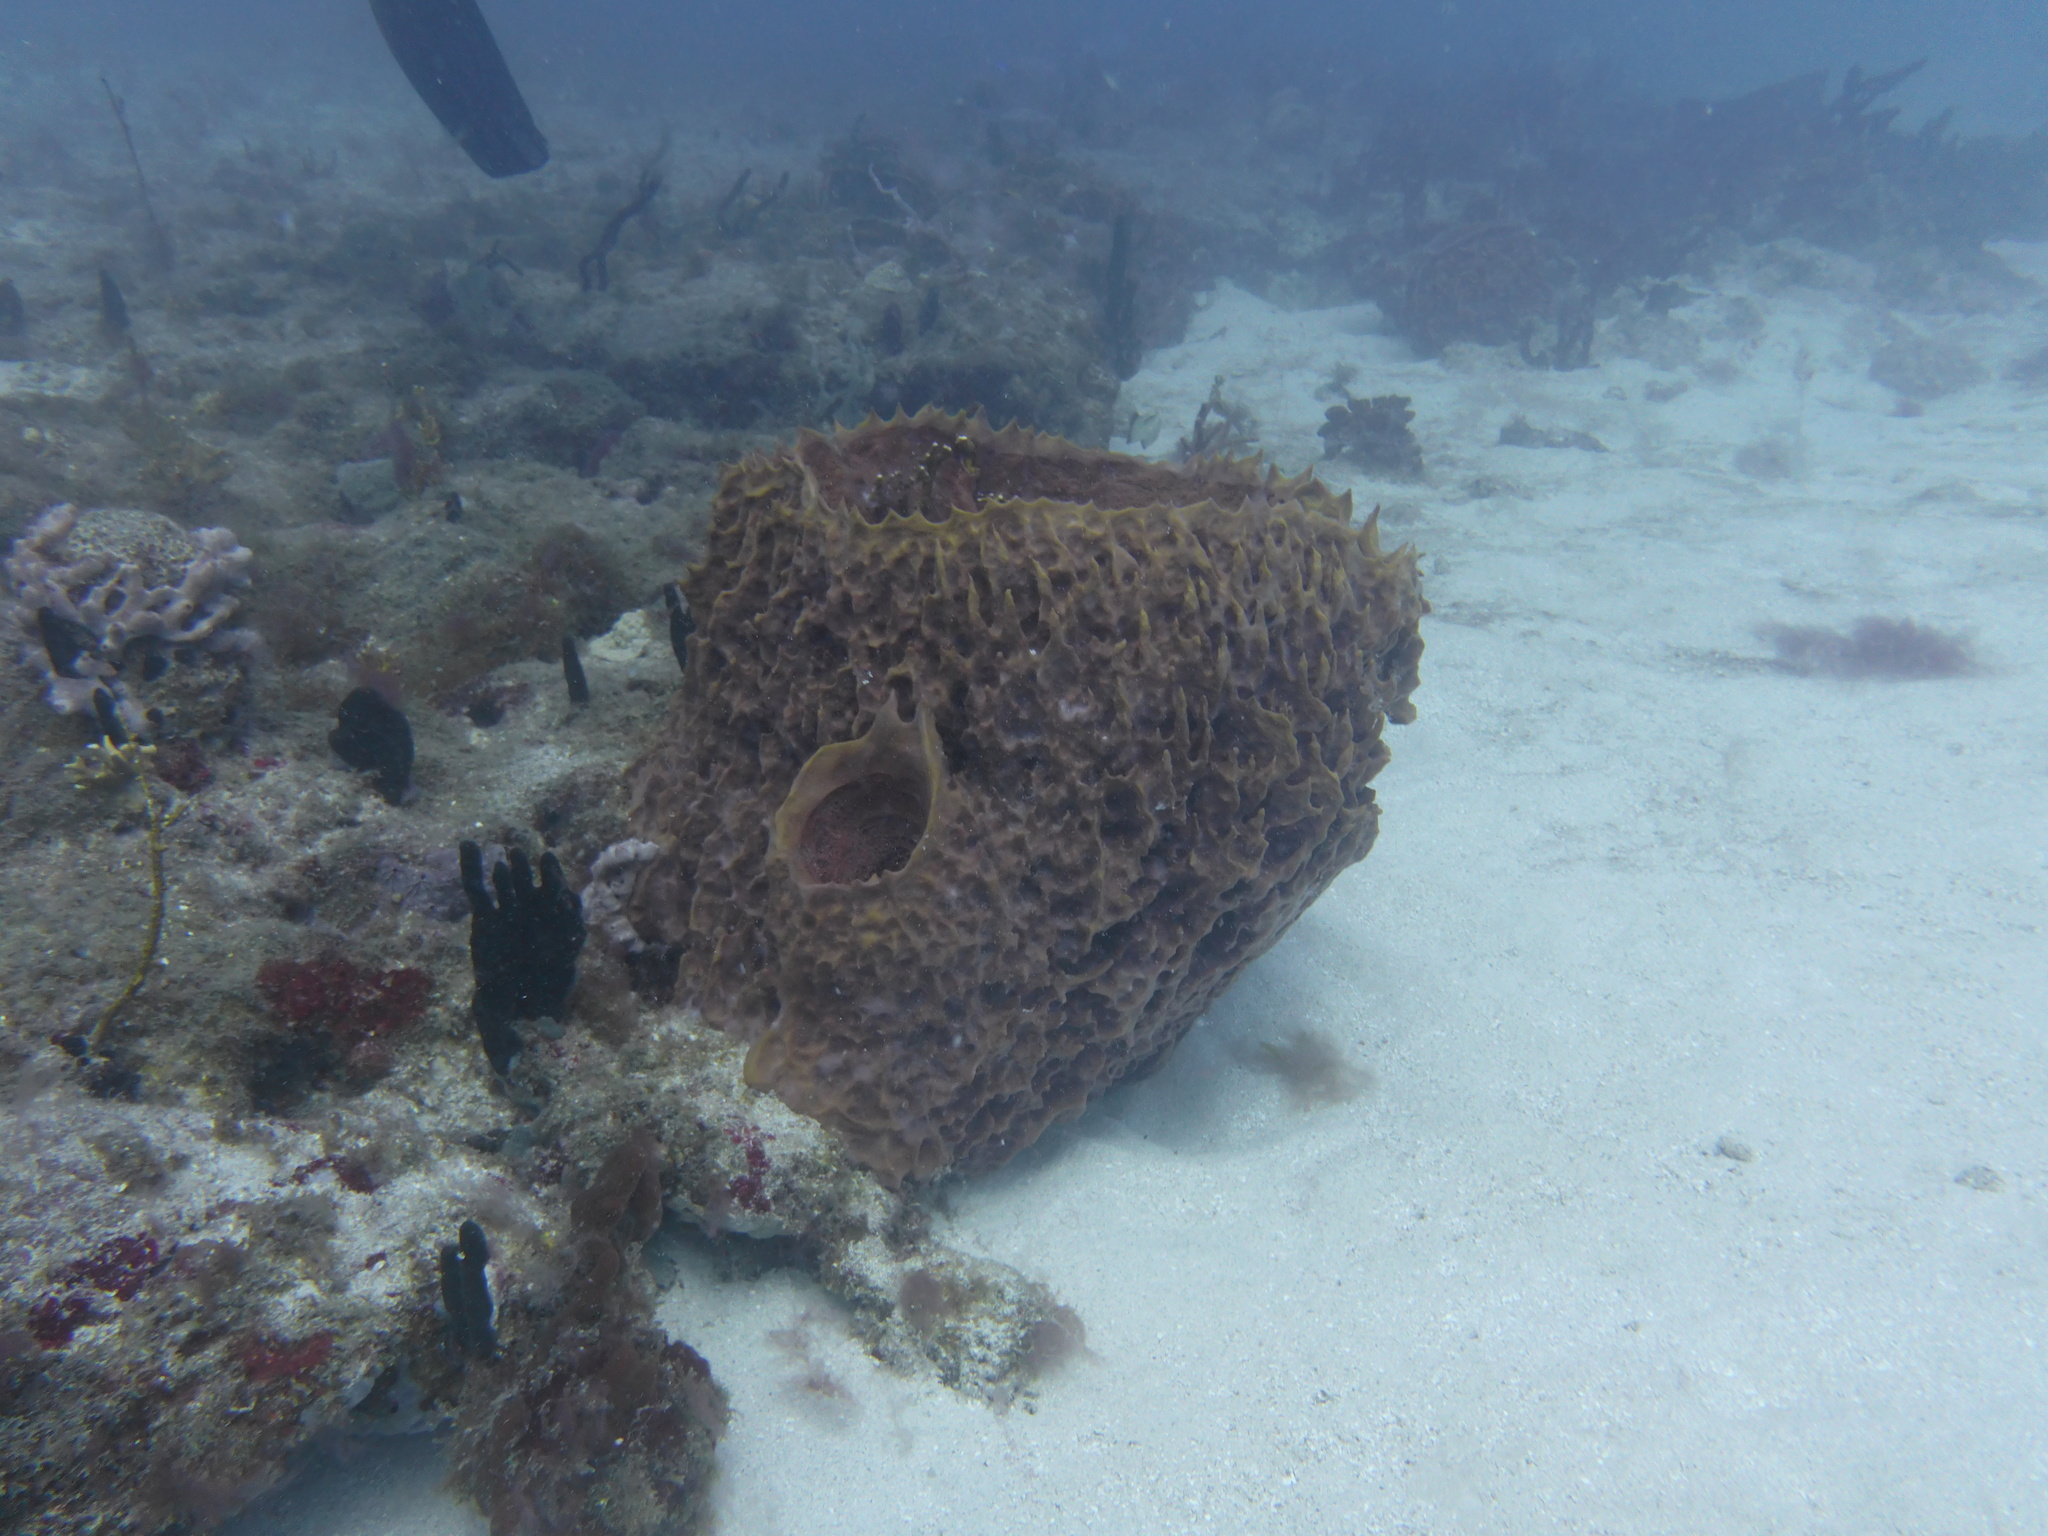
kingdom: Animalia
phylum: Porifera
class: Demospongiae
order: Haplosclerida
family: Petrosiidae
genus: Xestospongia
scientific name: Xestospongia muta
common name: Giant barrel sponge
